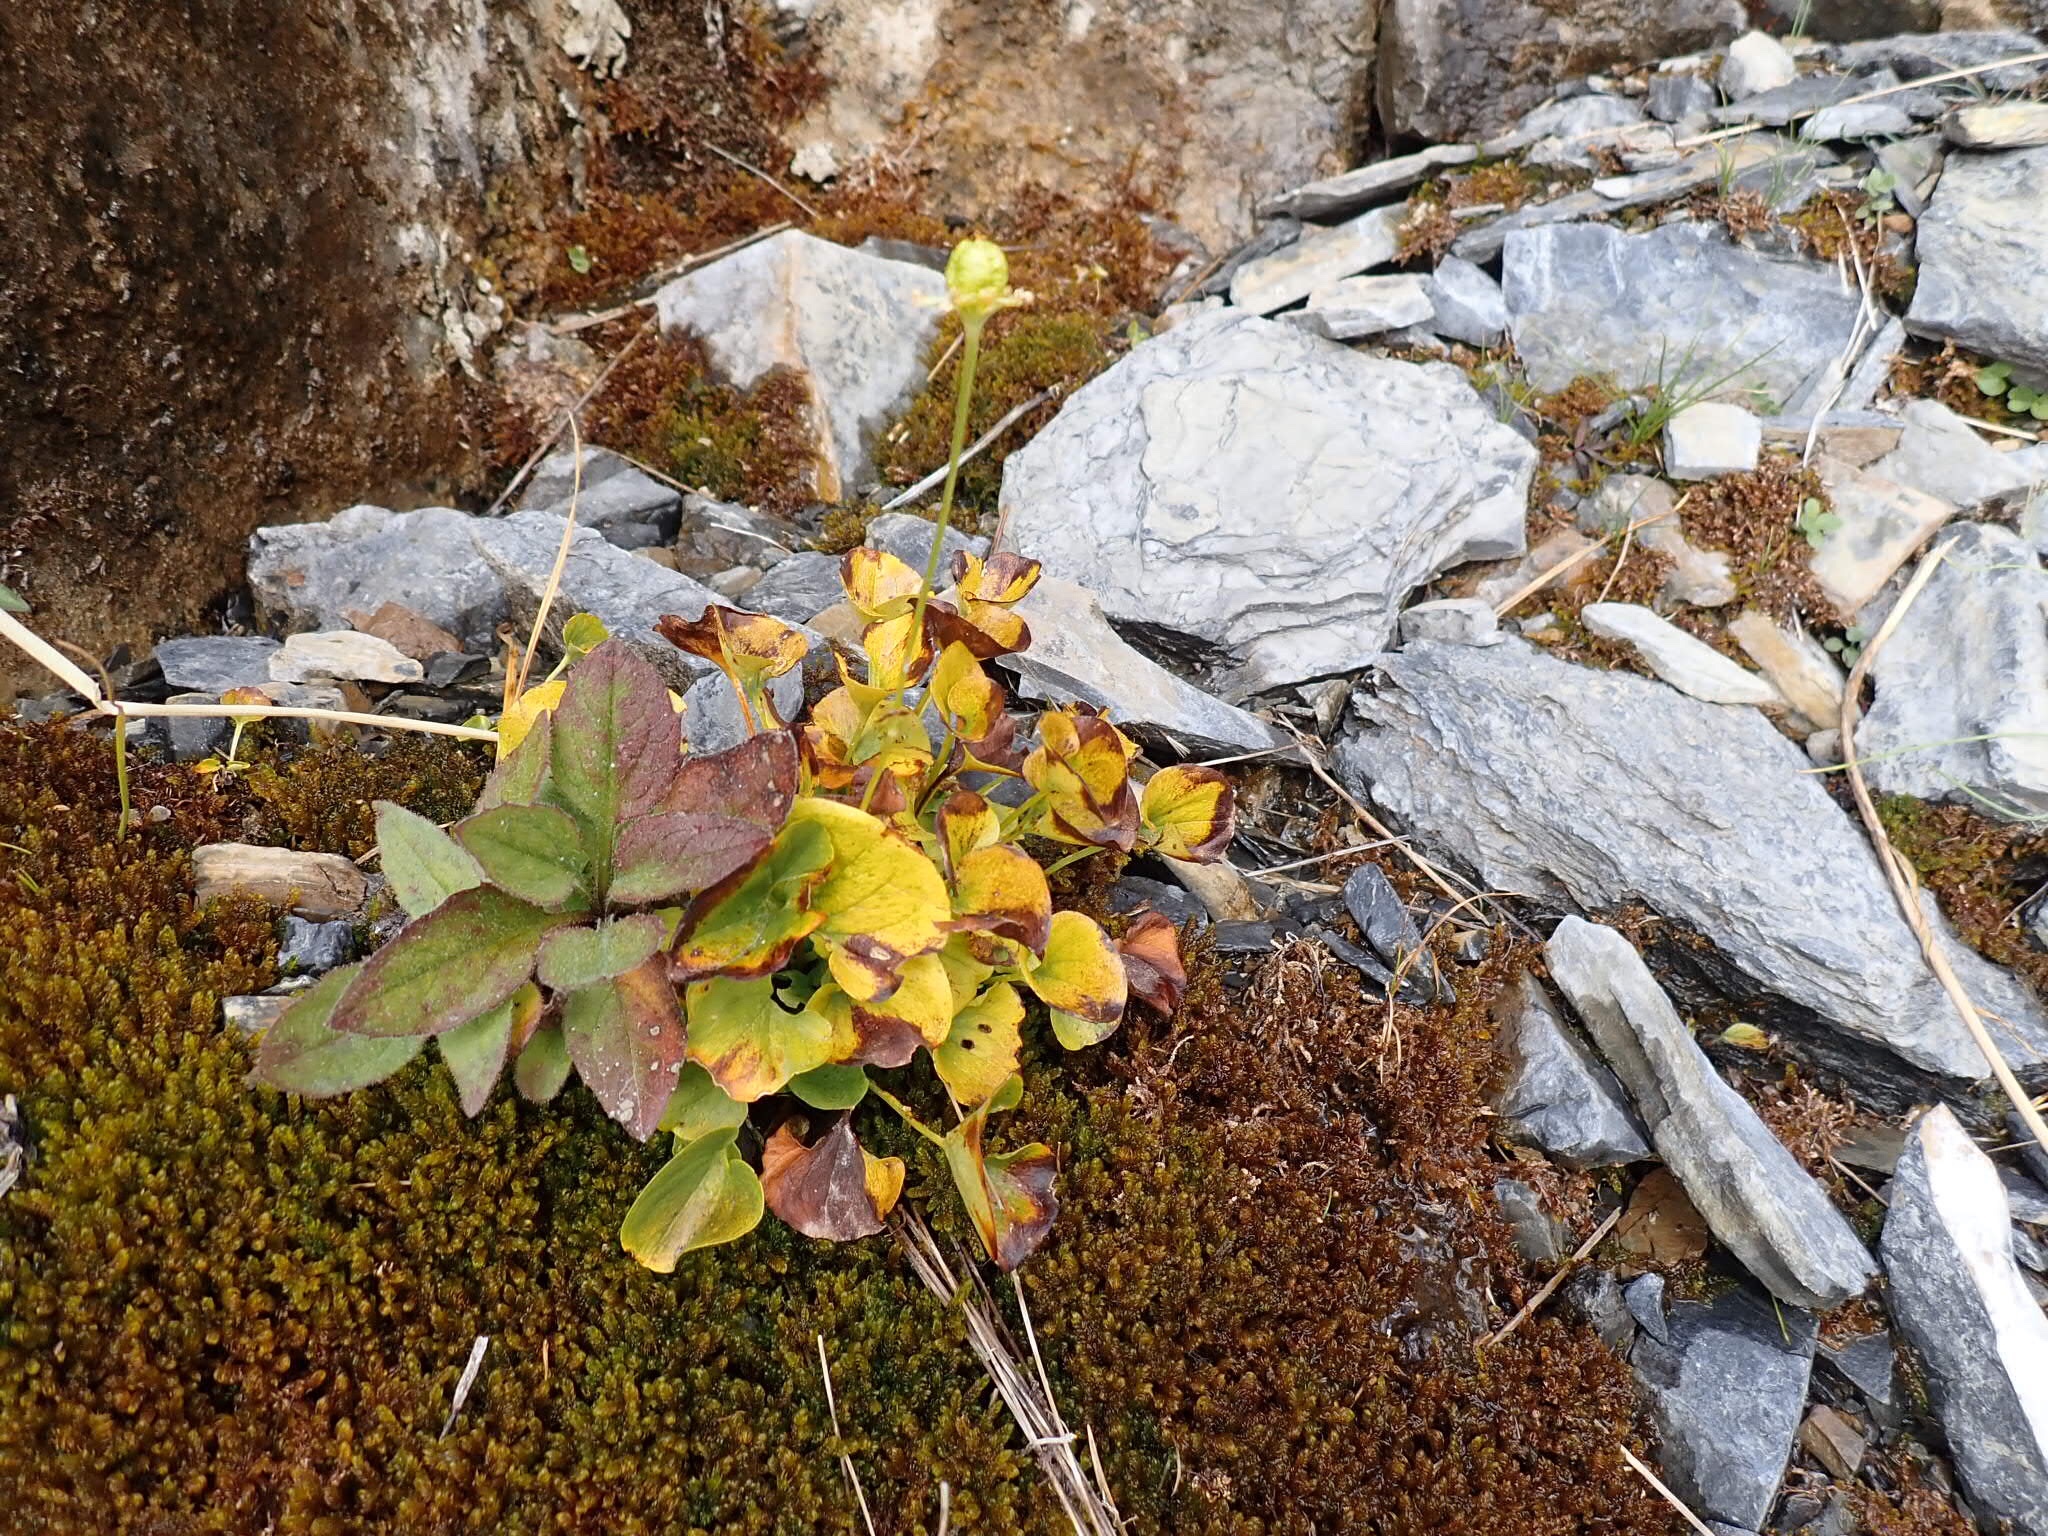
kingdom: Plantae
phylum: Tracheophyta
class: Magnoliopsida
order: Celastrales
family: Parnassiaceae
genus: Parnassia
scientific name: Parnassia fimbriata
